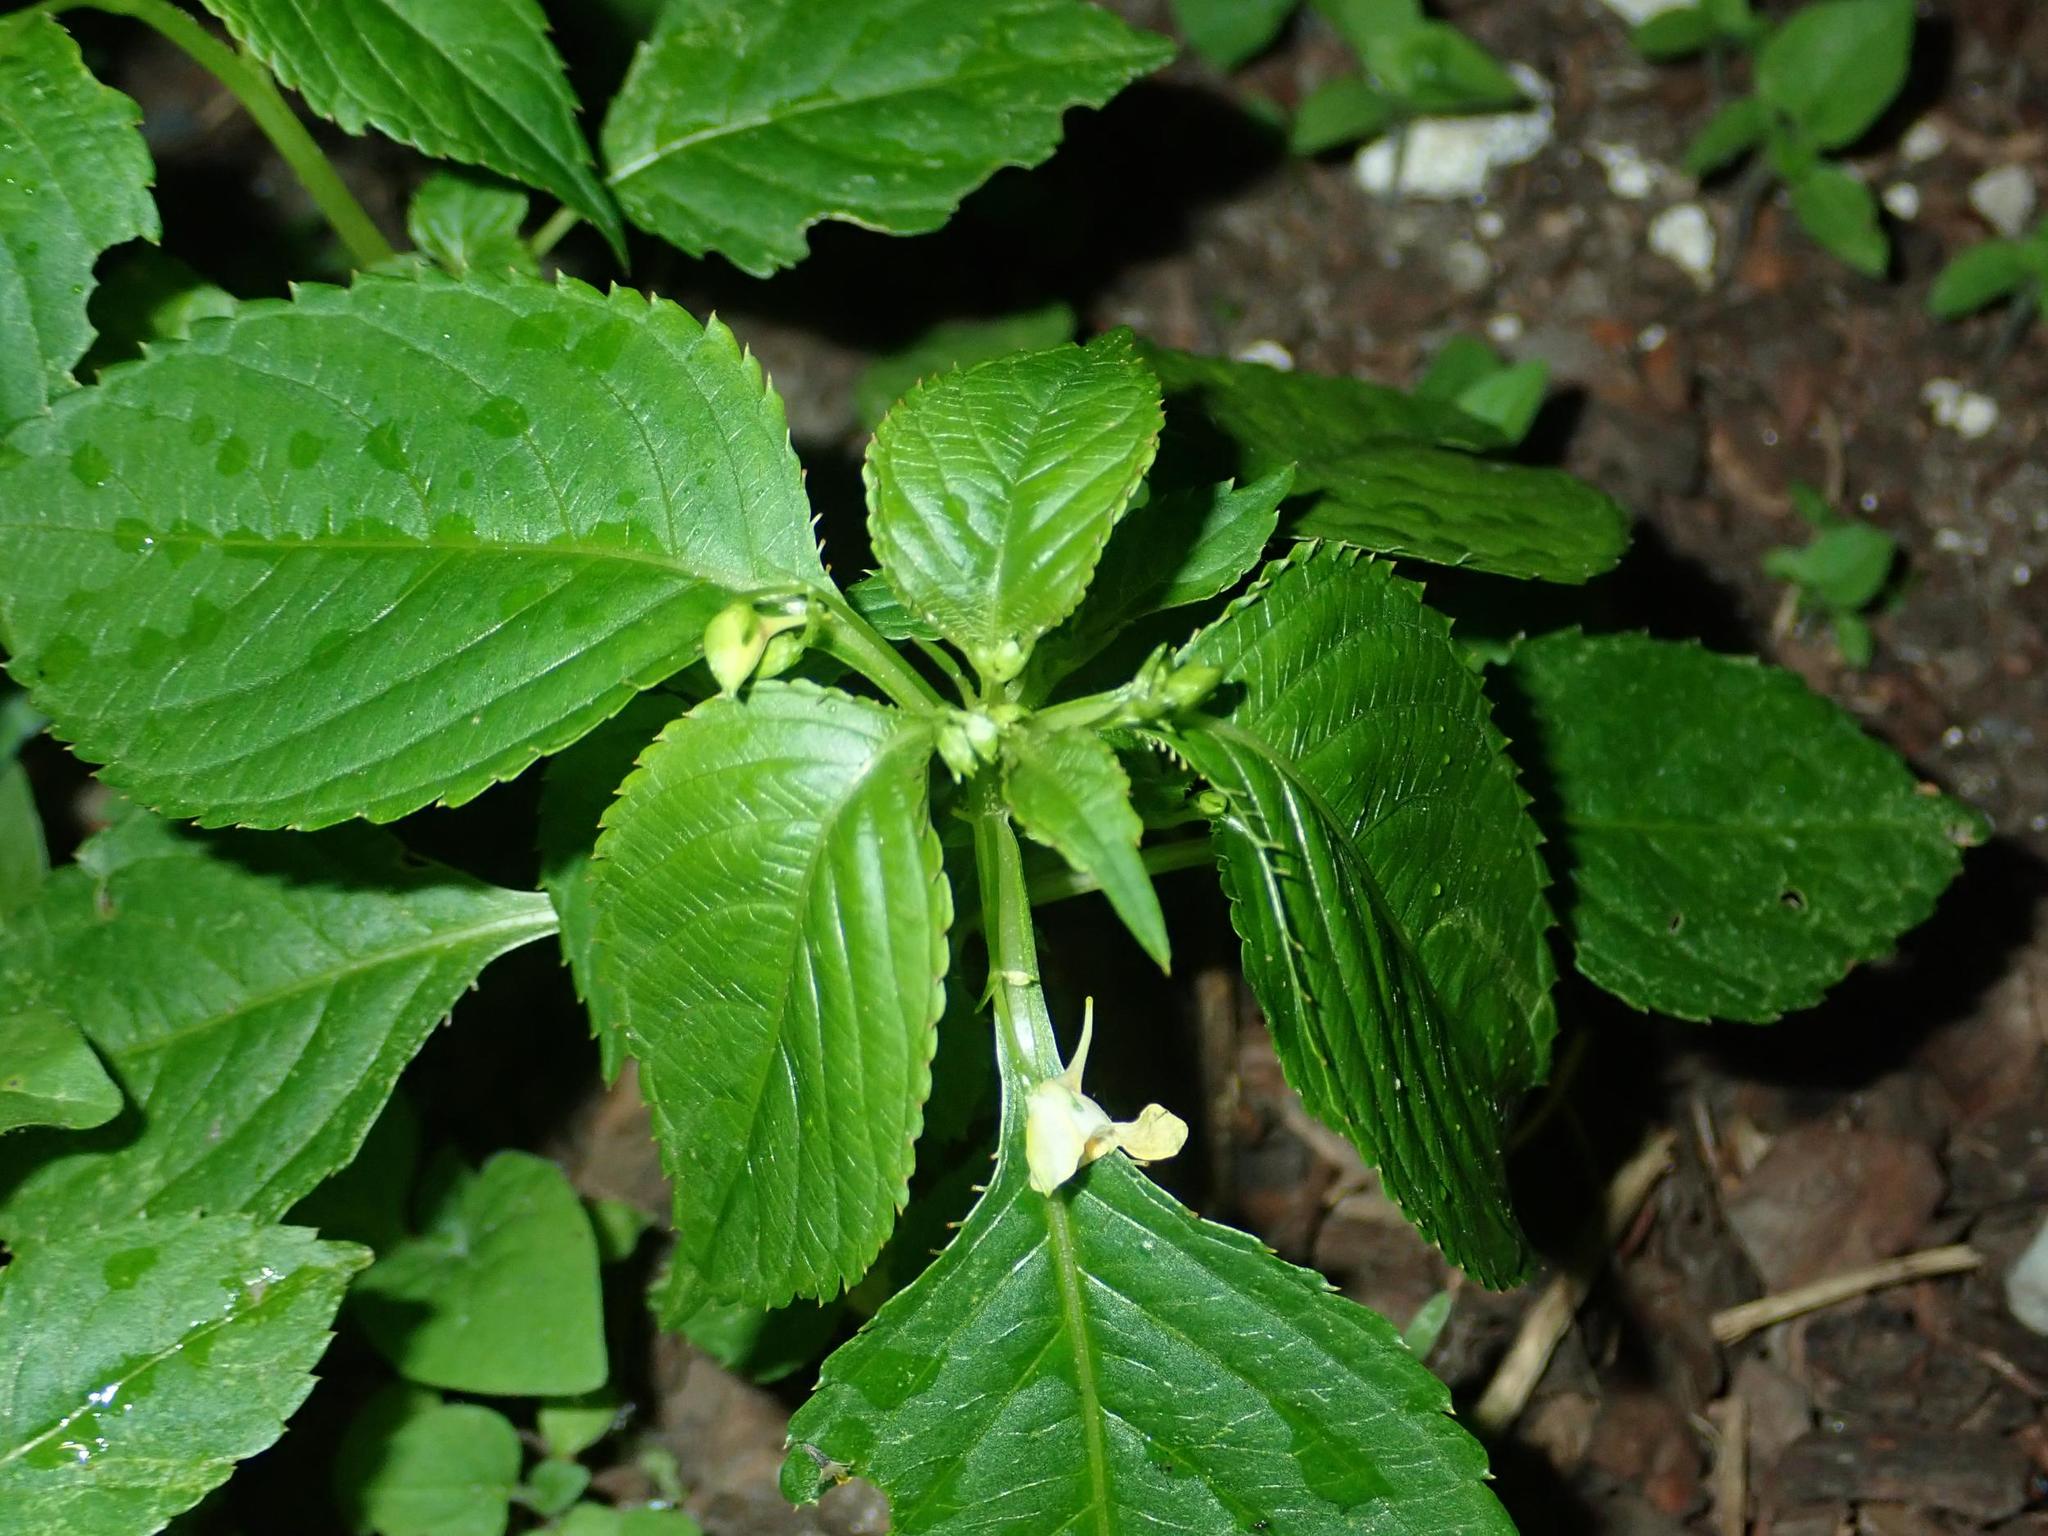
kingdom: Plantae
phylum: Tracheophyta
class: Magnoliopsida
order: Ericales
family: Balsaminaceae
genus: Impatiens
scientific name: Impatiens parviflora
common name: Small balsam
